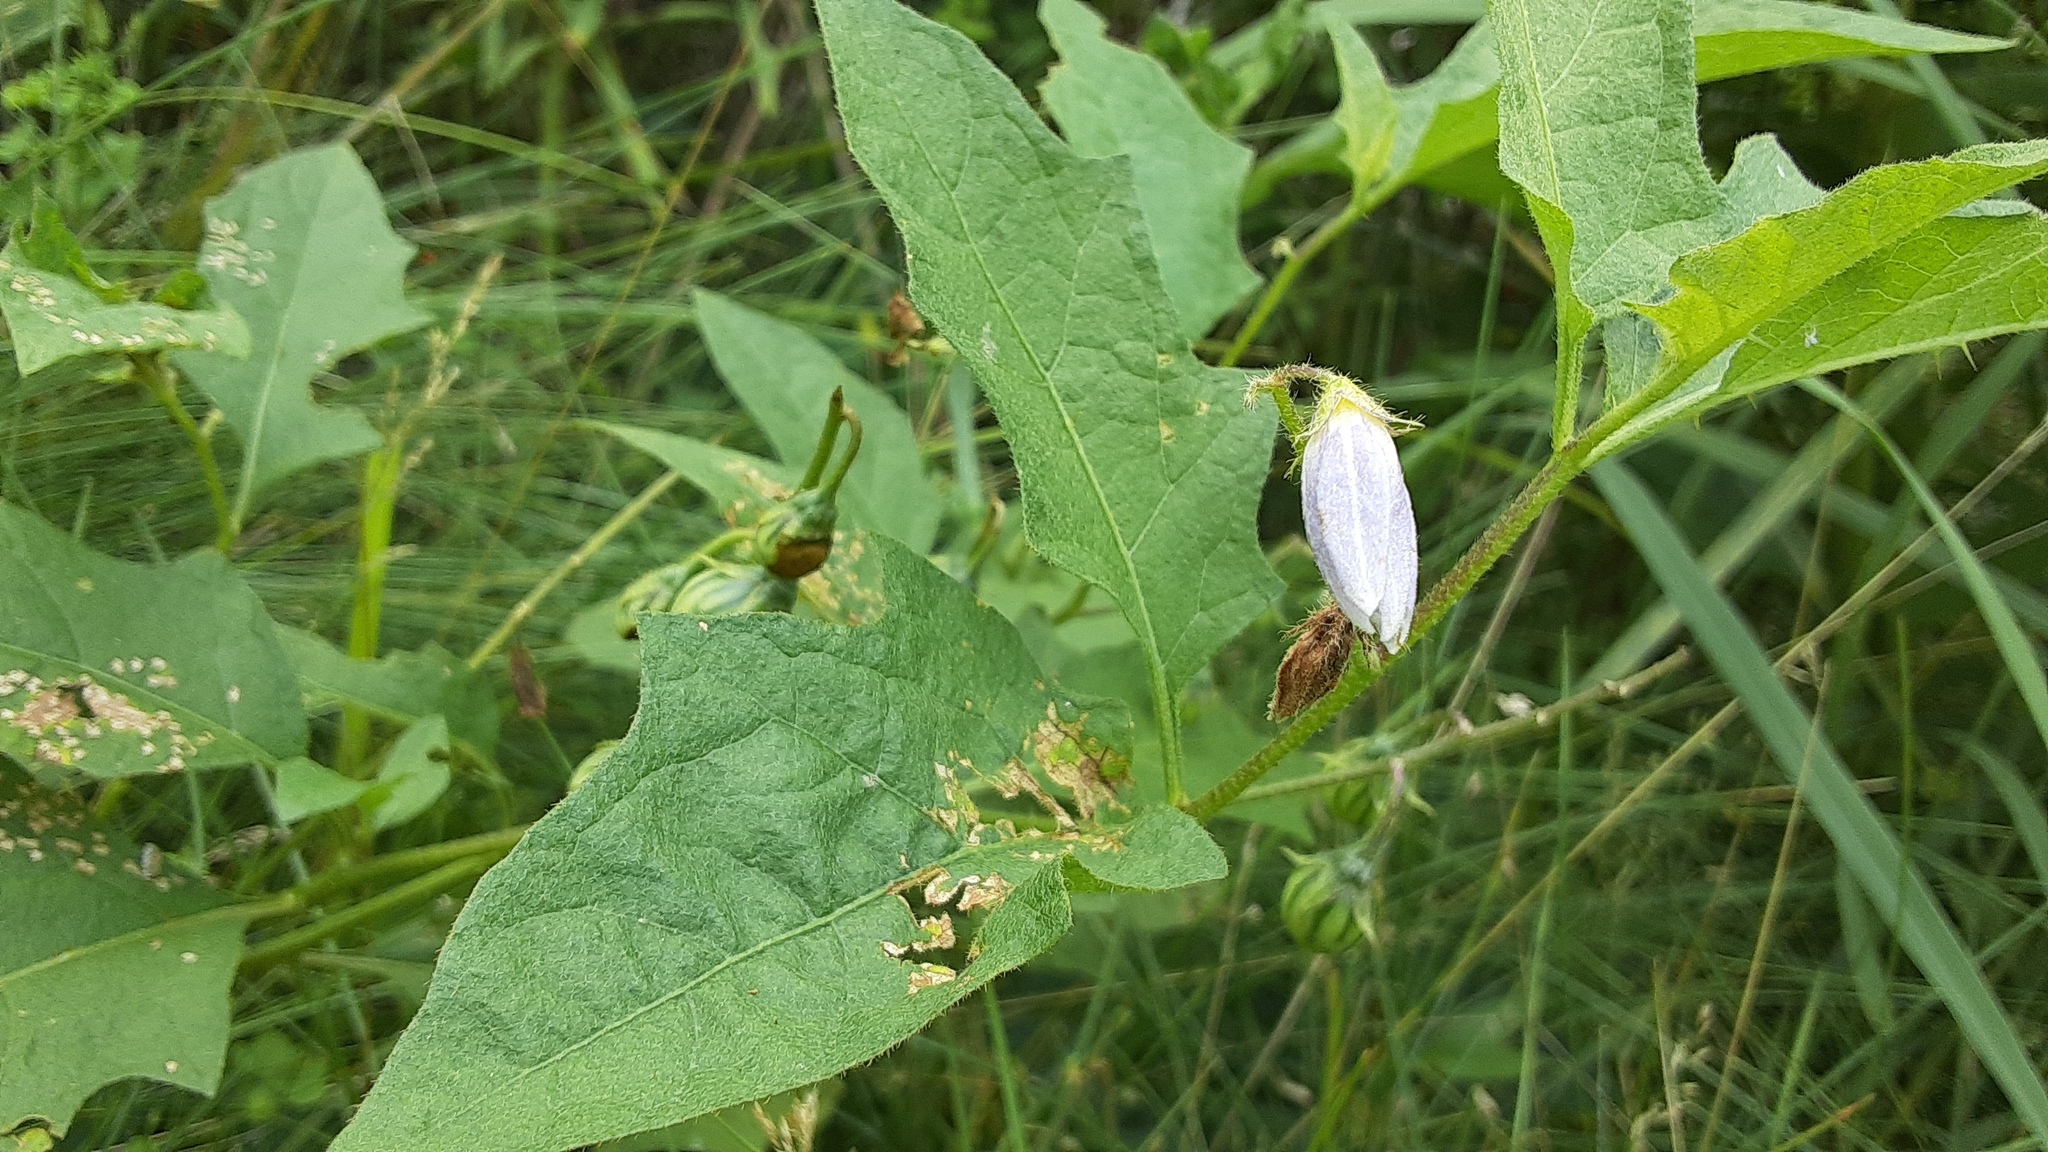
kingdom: Plantae
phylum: Tracheophyta
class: Magnoliopsida
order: Solanales
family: Solanaceae
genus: Solanum
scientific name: Solanum carolinense
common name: Horse-nettle
